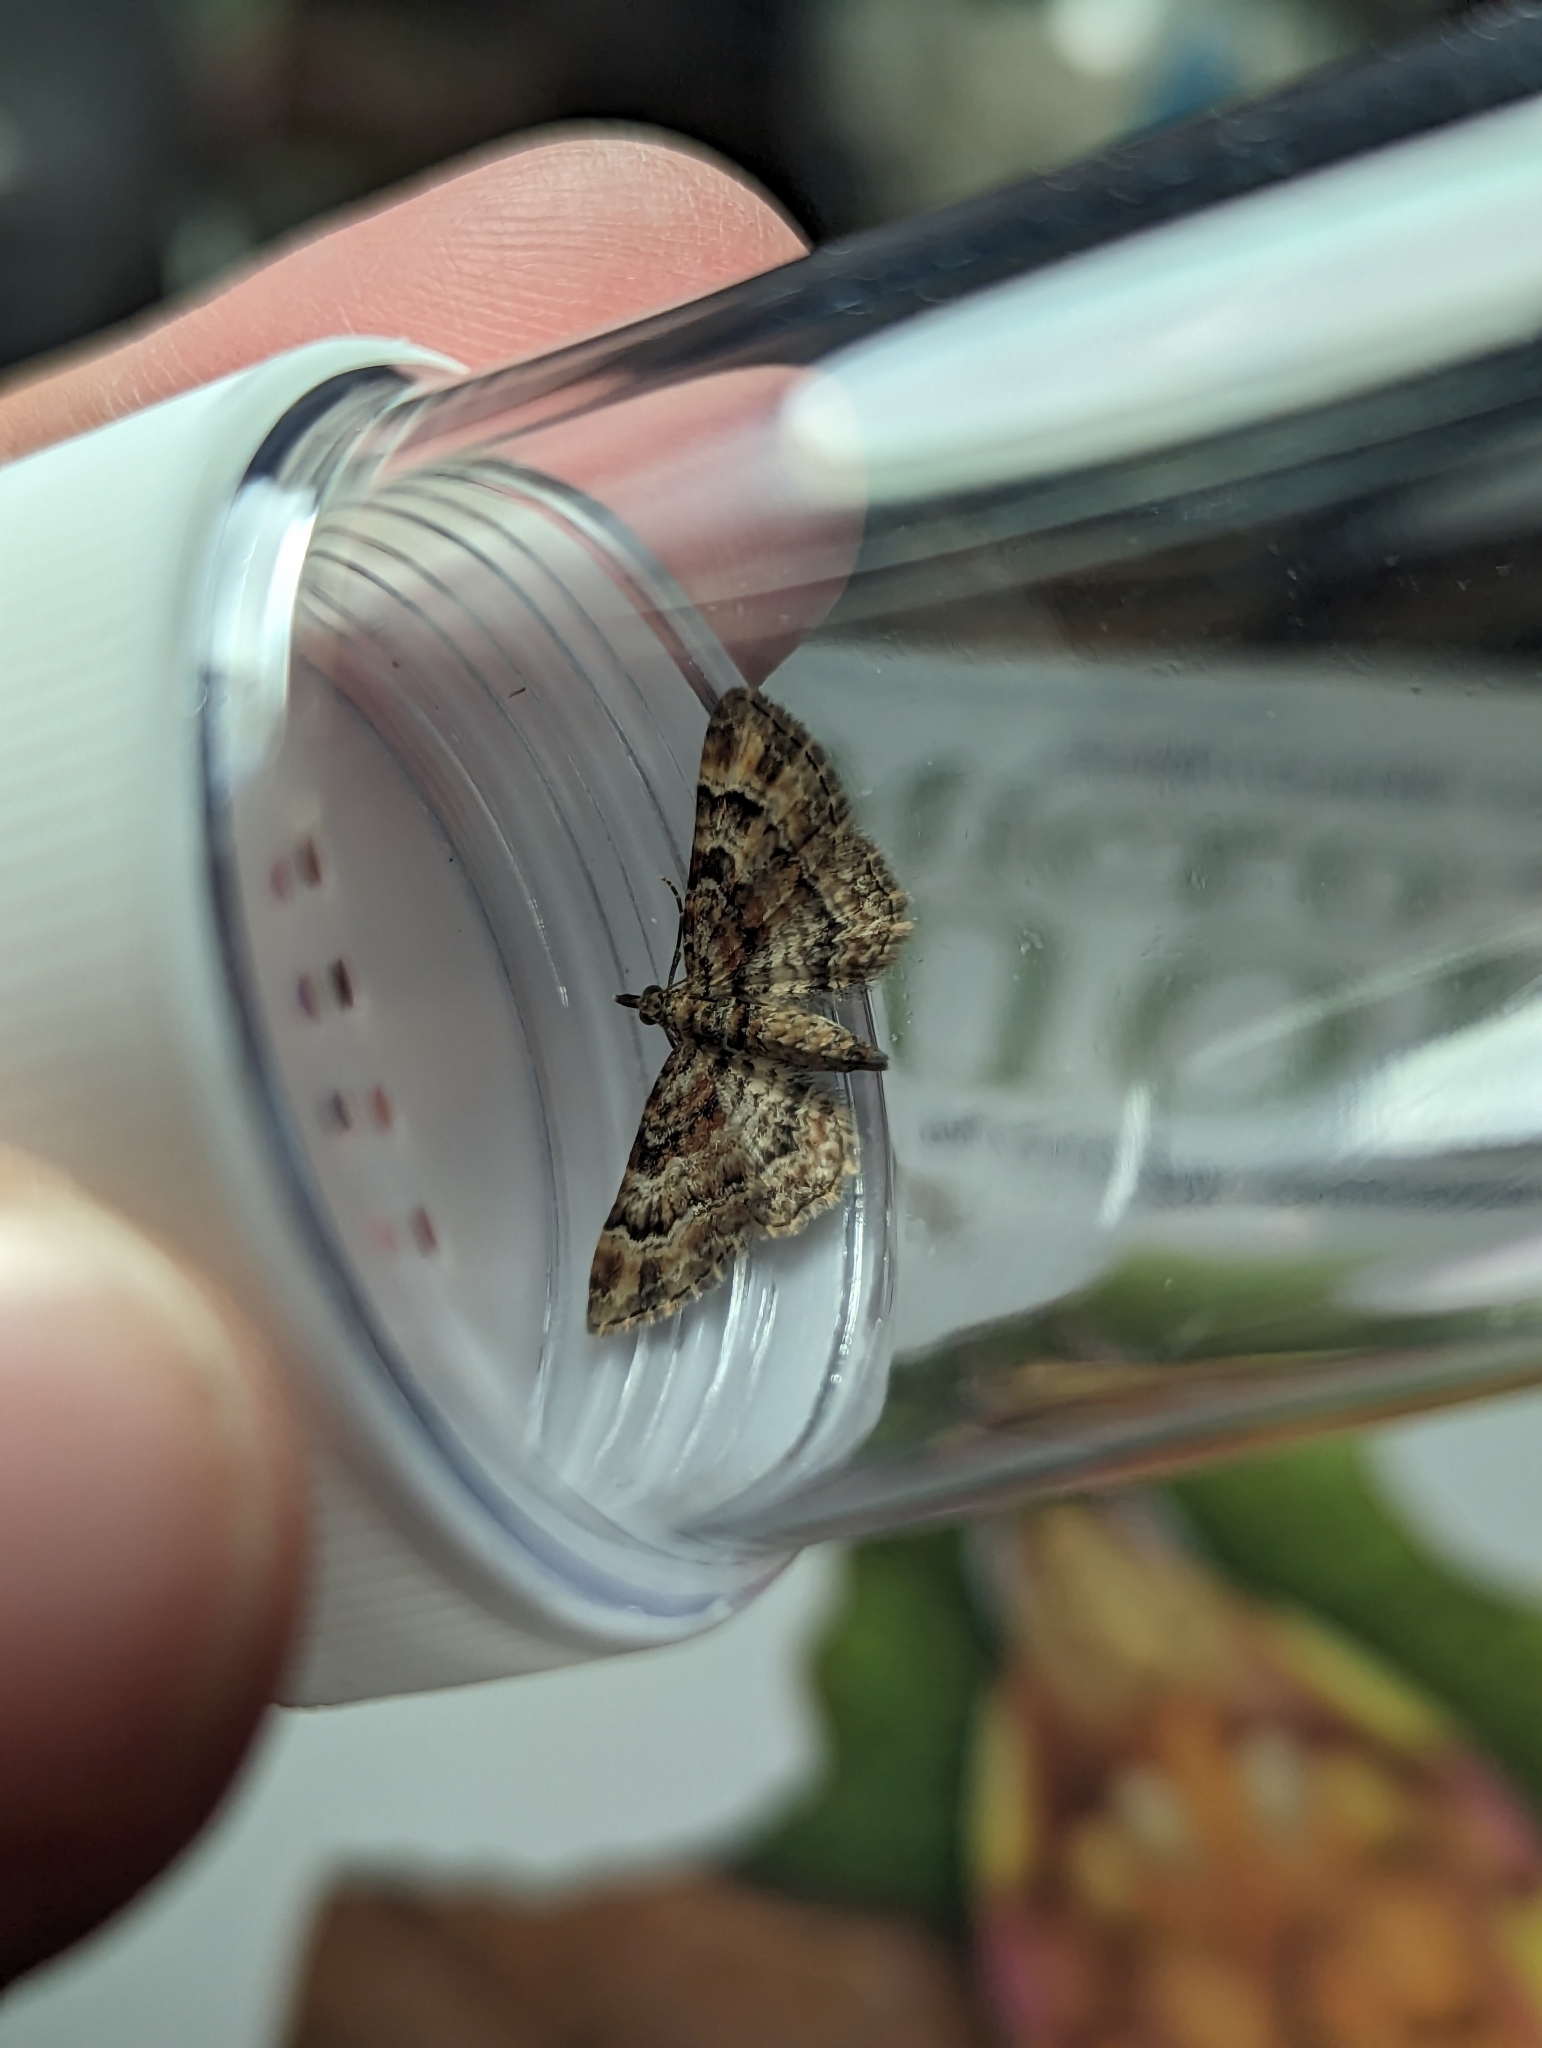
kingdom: Animalia
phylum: Arthropoda
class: Insecta
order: Lepidoptera
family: Geometridae
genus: Gymnoscelis
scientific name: Gymnoscelis rufifasciata
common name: Double-striped pug
